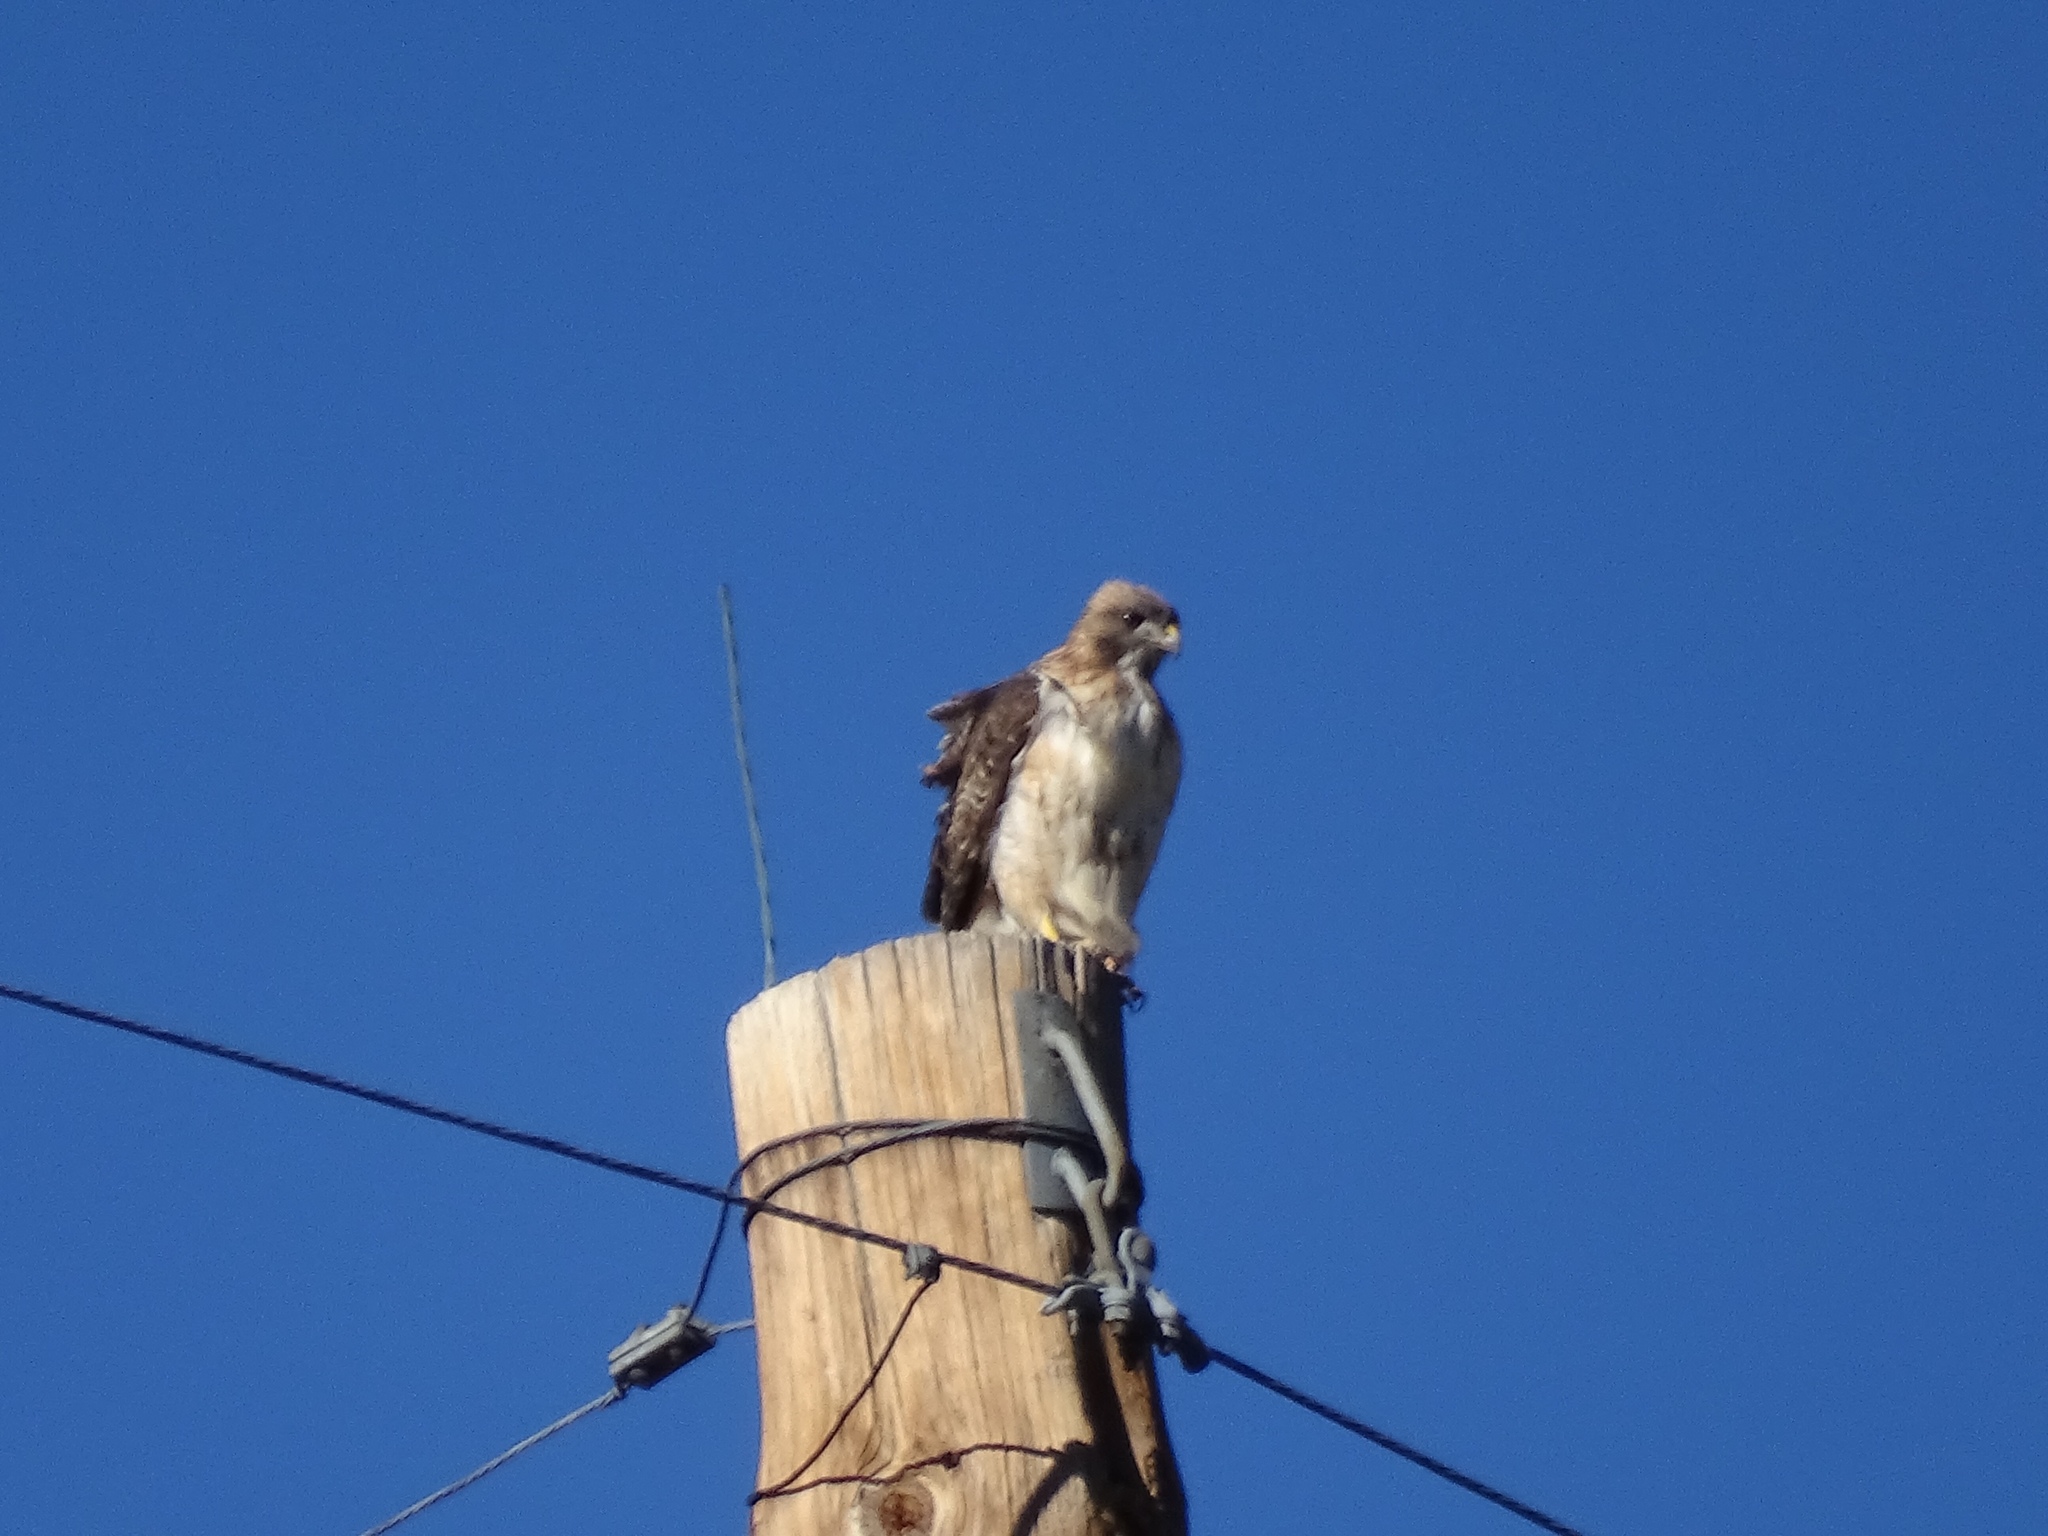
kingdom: Animalia
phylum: Chordata
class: Aves
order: Accipitriformes
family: Accipitridae
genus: Buteo
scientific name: Buteo jamaicensis
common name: Red-tailed hawk
